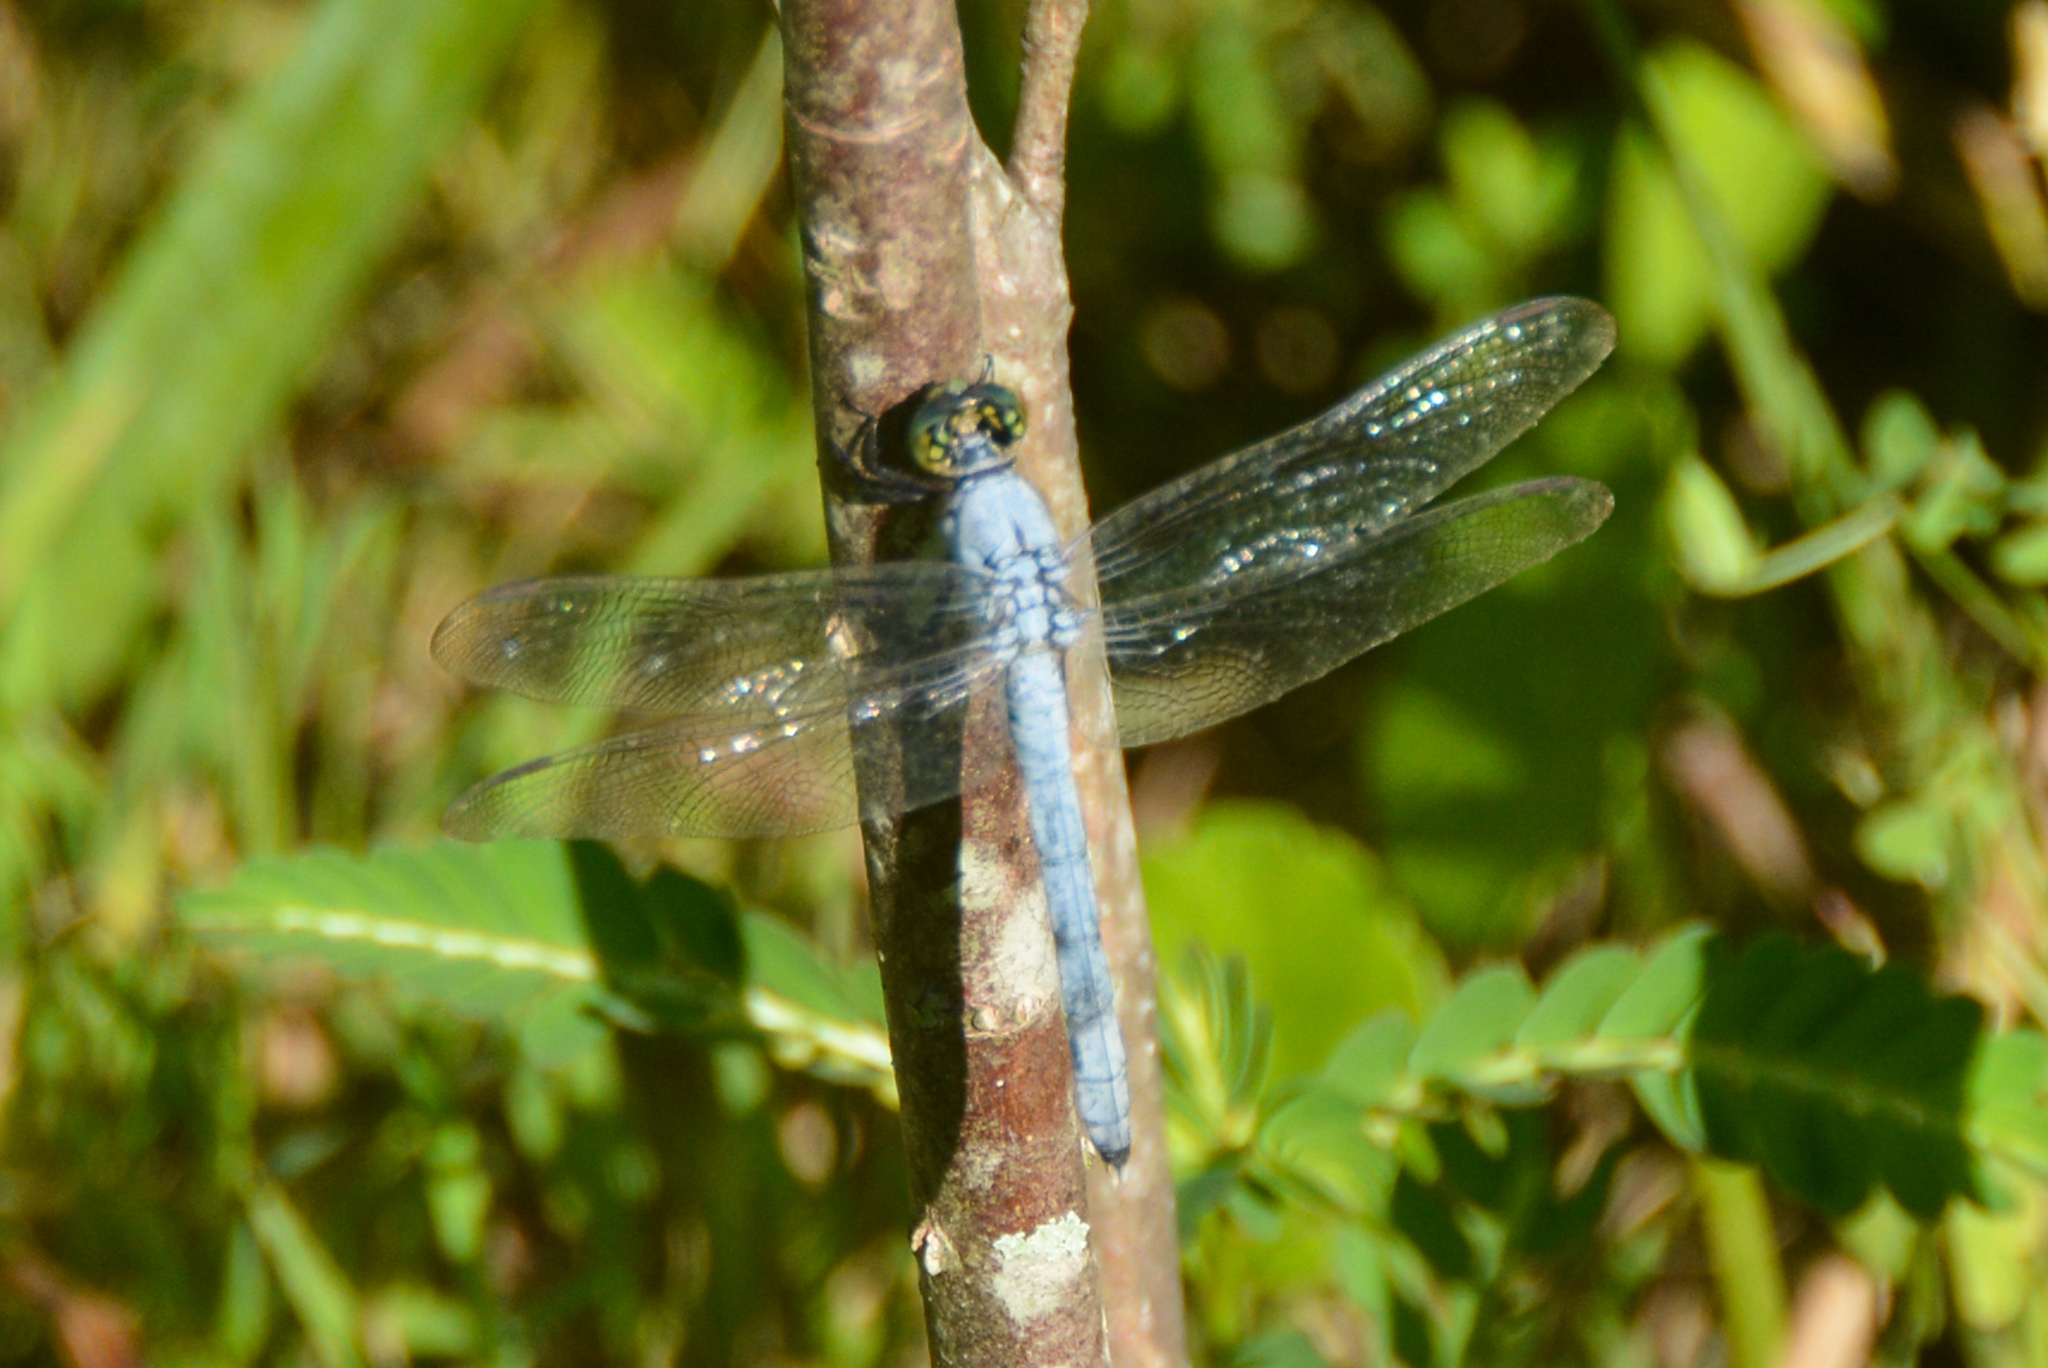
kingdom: Animalia
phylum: Arthropoda
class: Insecta
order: Odonata
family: Libellulidae
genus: Erythemis
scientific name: Erythemis simplicicollis
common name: Eastern pondhawk
